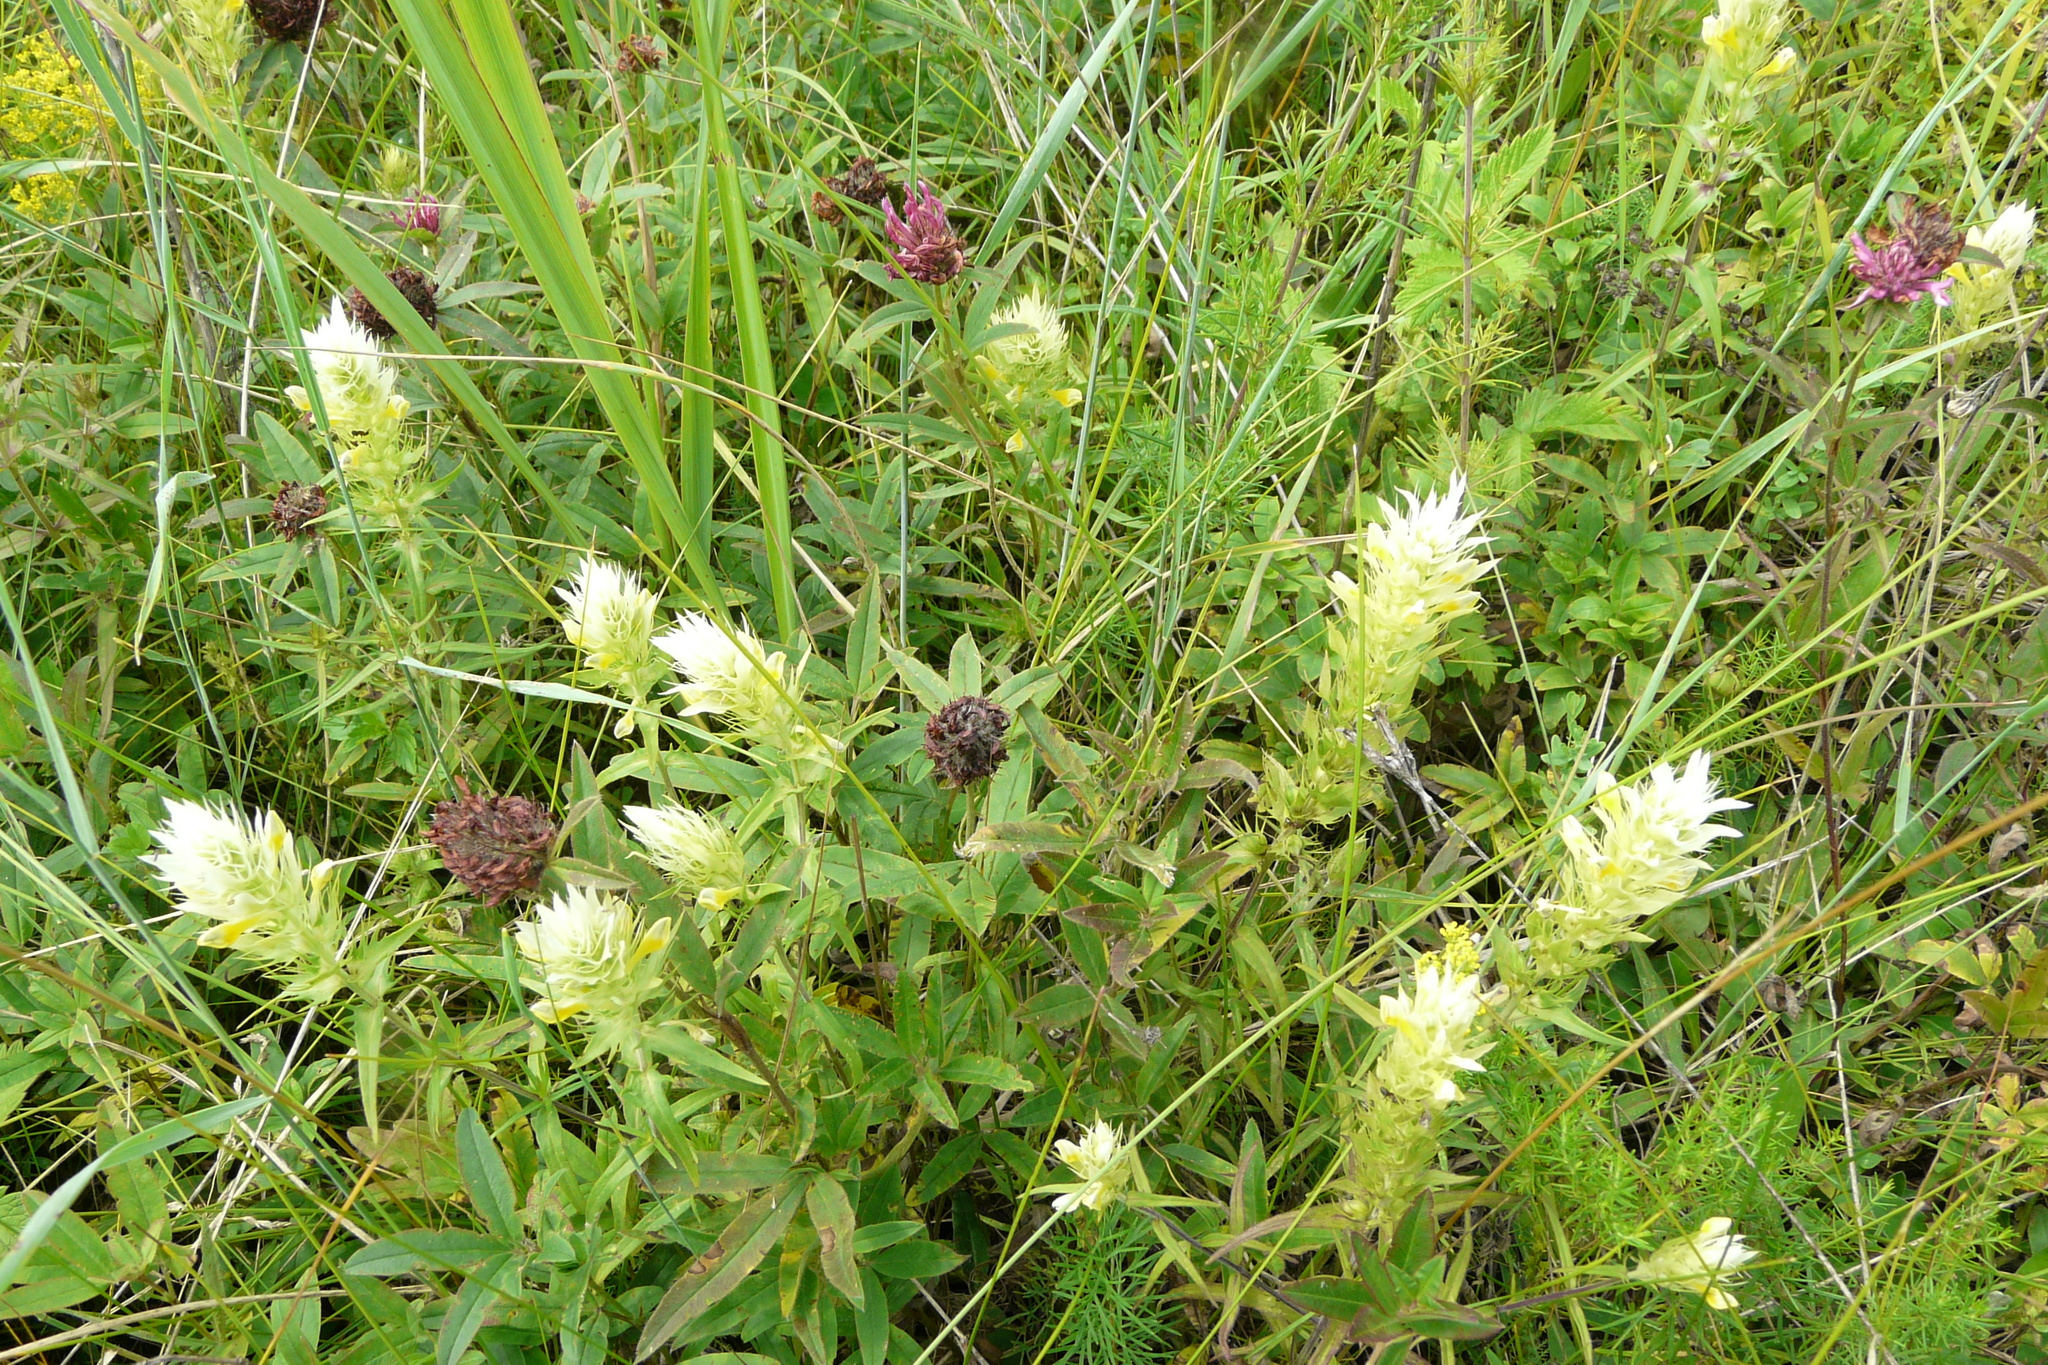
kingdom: Plantae
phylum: Tracheophyta
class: Magnoliopsida
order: Lamiales
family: Orobanchaceae
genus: Melampyrum
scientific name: Melampyrum arvense
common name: Field cow-wheat
